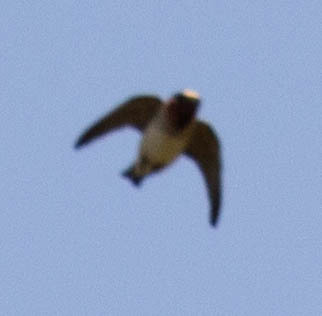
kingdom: Animalia
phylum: Chordata
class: Aves
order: Passeriformes
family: Hirundinidae
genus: Petrochelidon
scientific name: Petrochelidon pyrrhonota
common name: American cliff swallow
